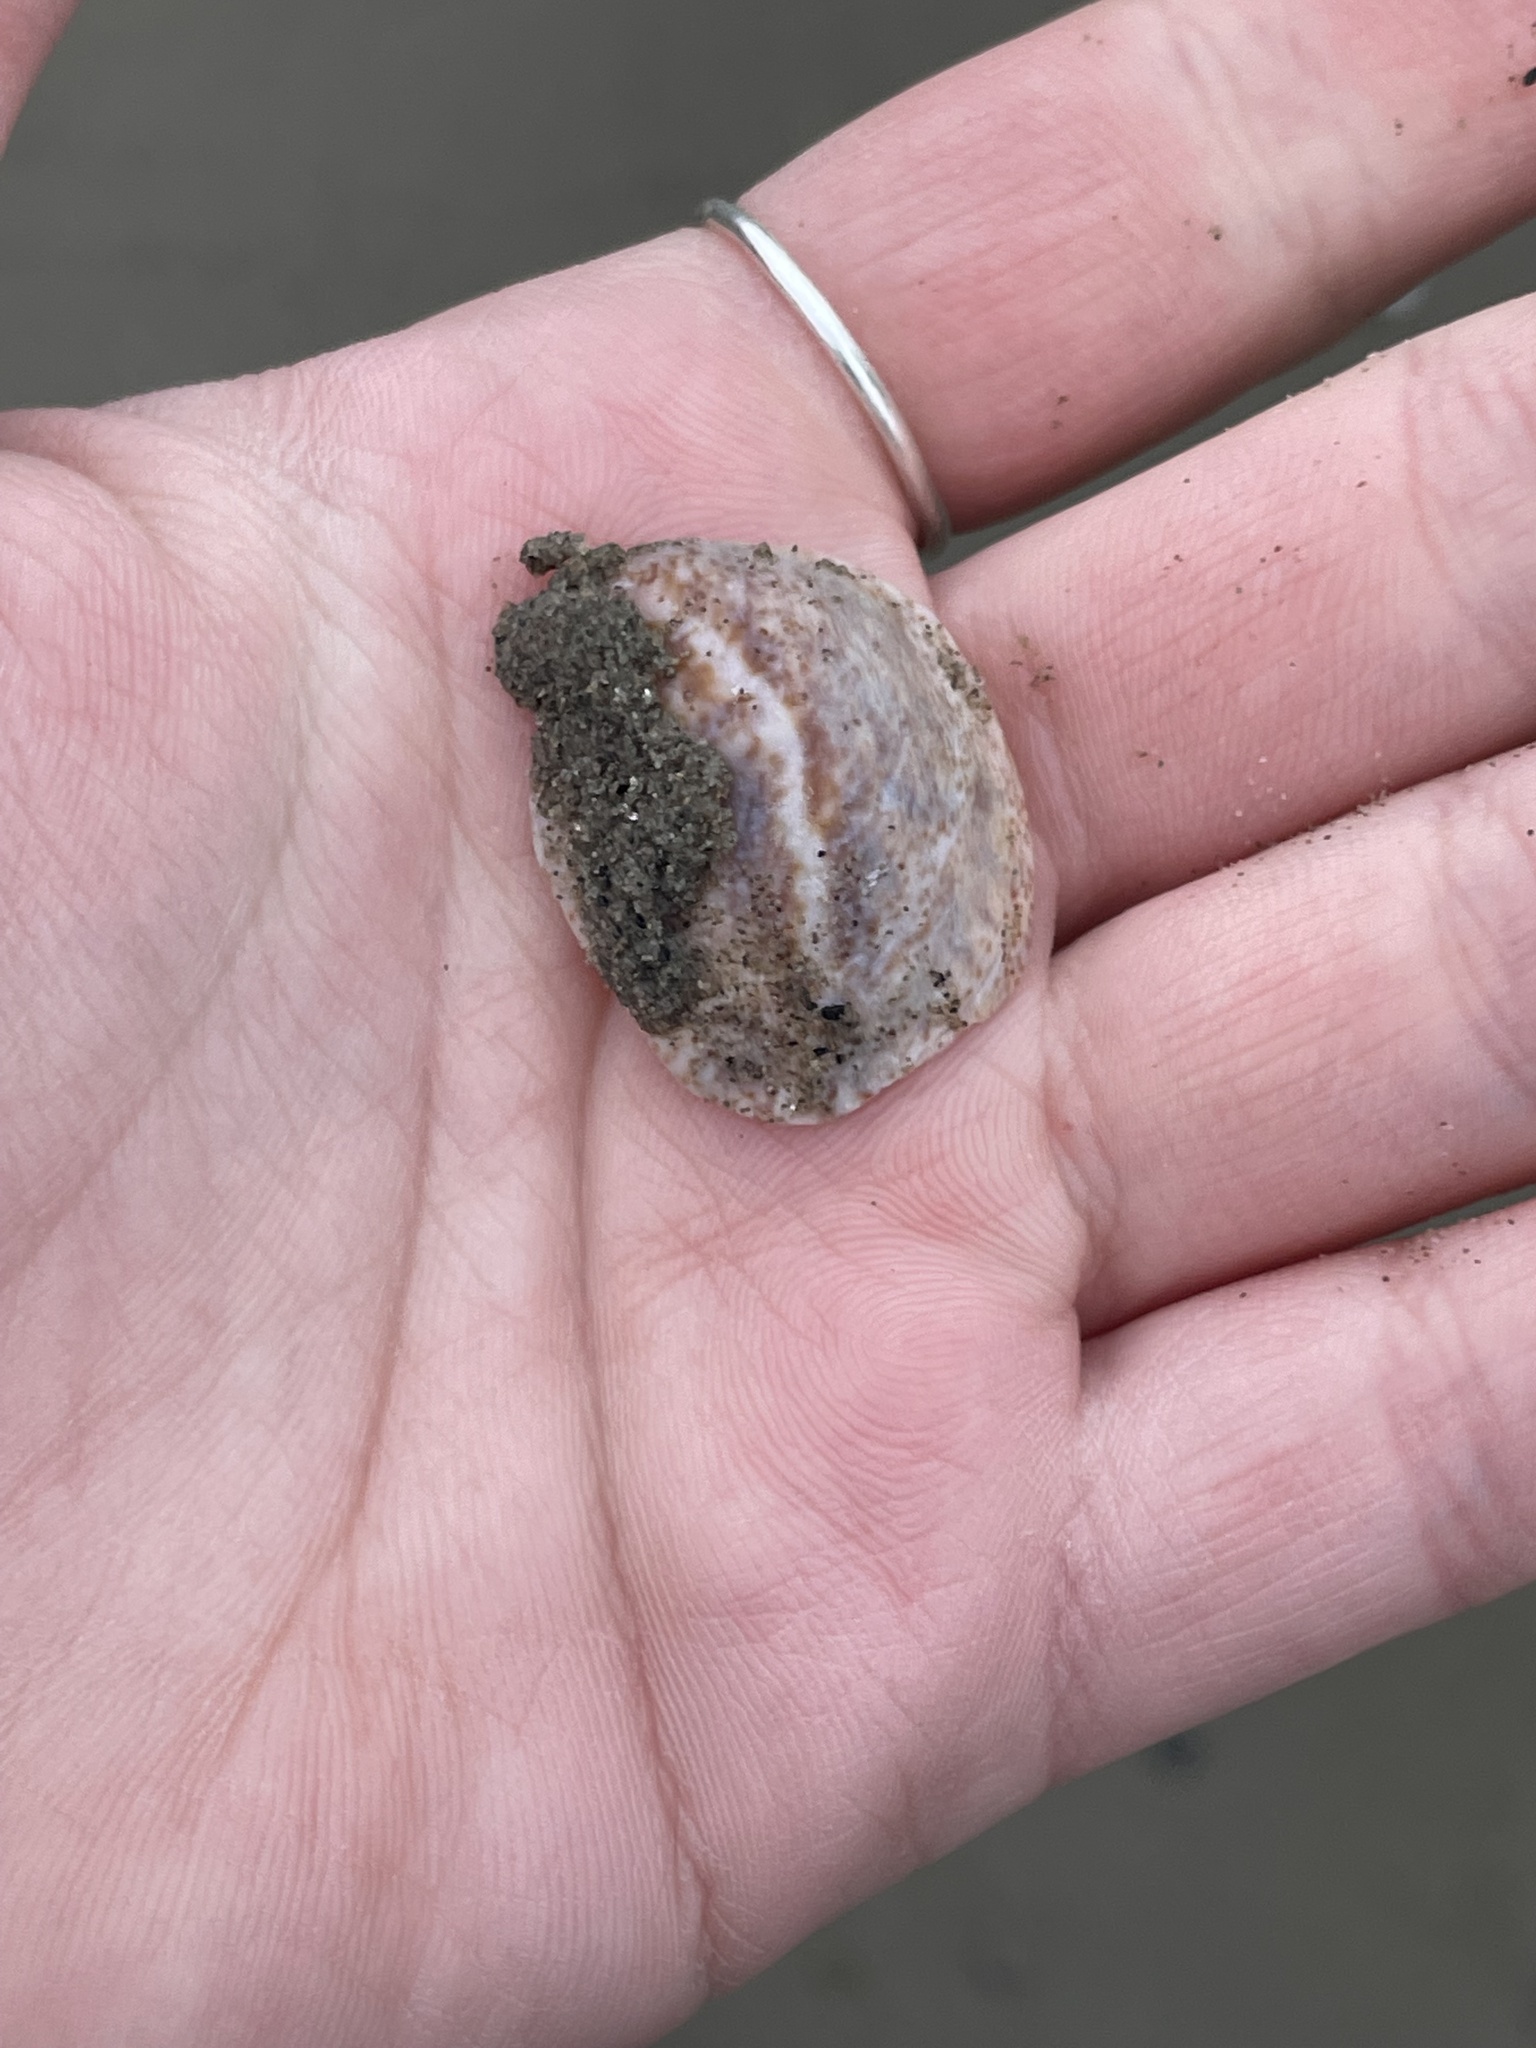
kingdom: Animalia
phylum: Mollusca
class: Gastropoda
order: Littorinimorpha
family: Calyptraeidae
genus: Crepidula
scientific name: Crepidula fornicata
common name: Slipper limpet
